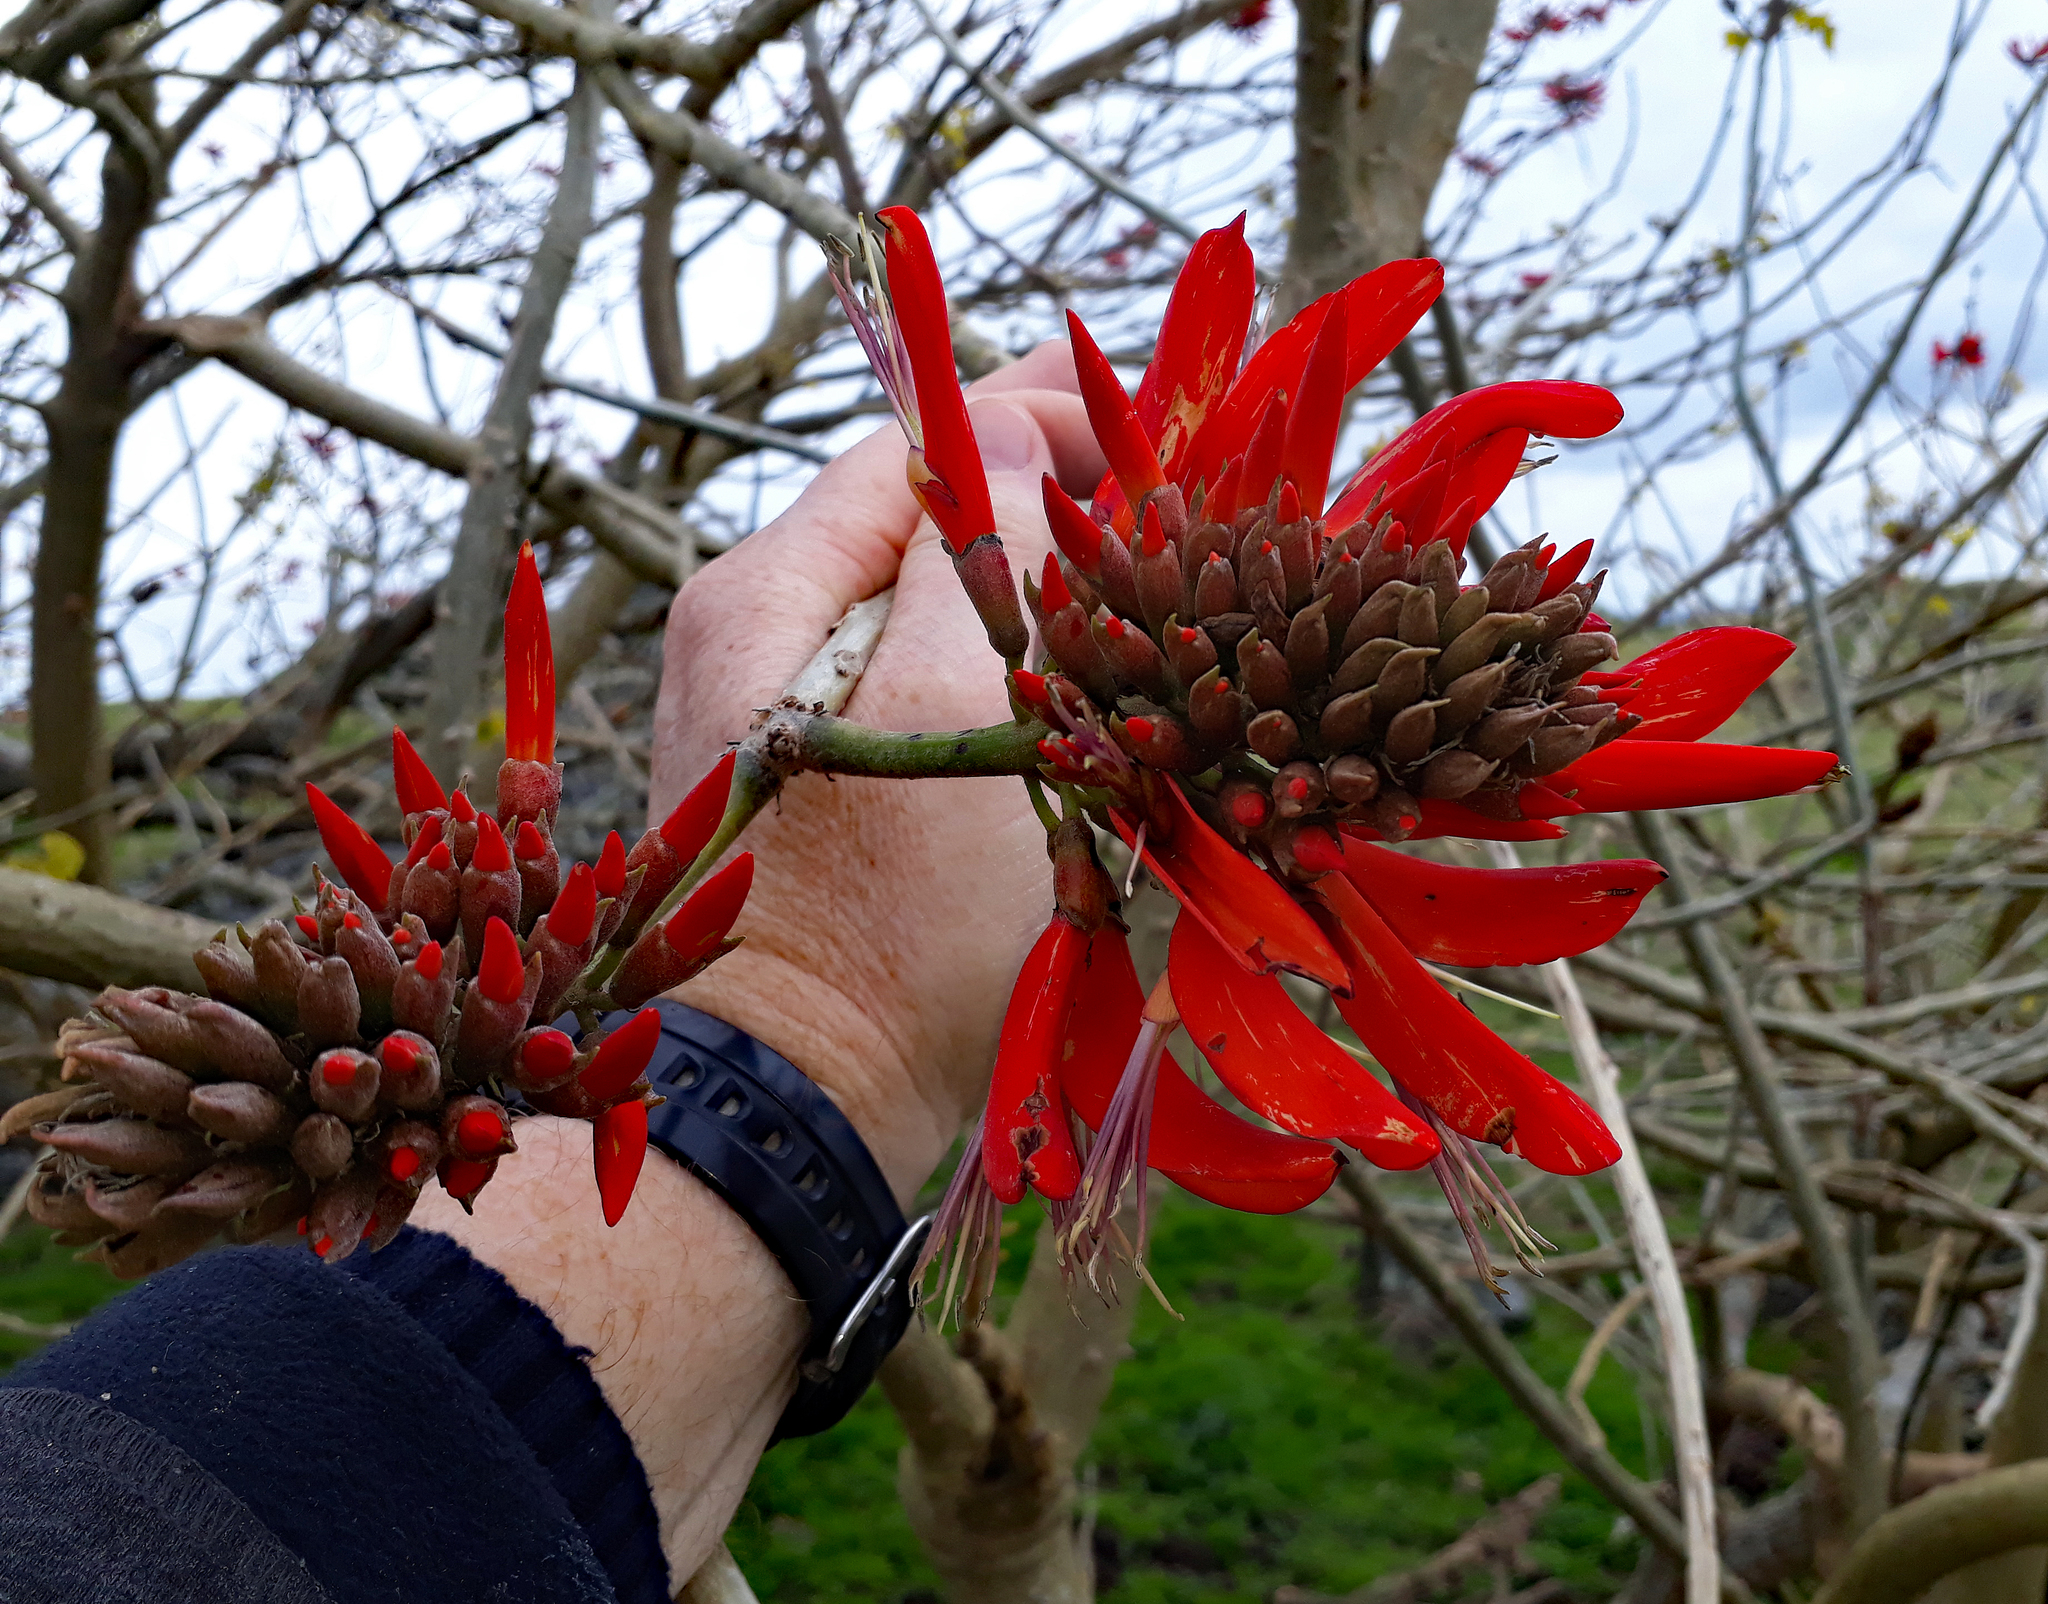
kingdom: Plantae
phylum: Tracheophyta
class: Magnoliopsida
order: Fabales
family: Fabaceae
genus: Erythrina
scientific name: Erythrina sykesii
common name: Coraltree
